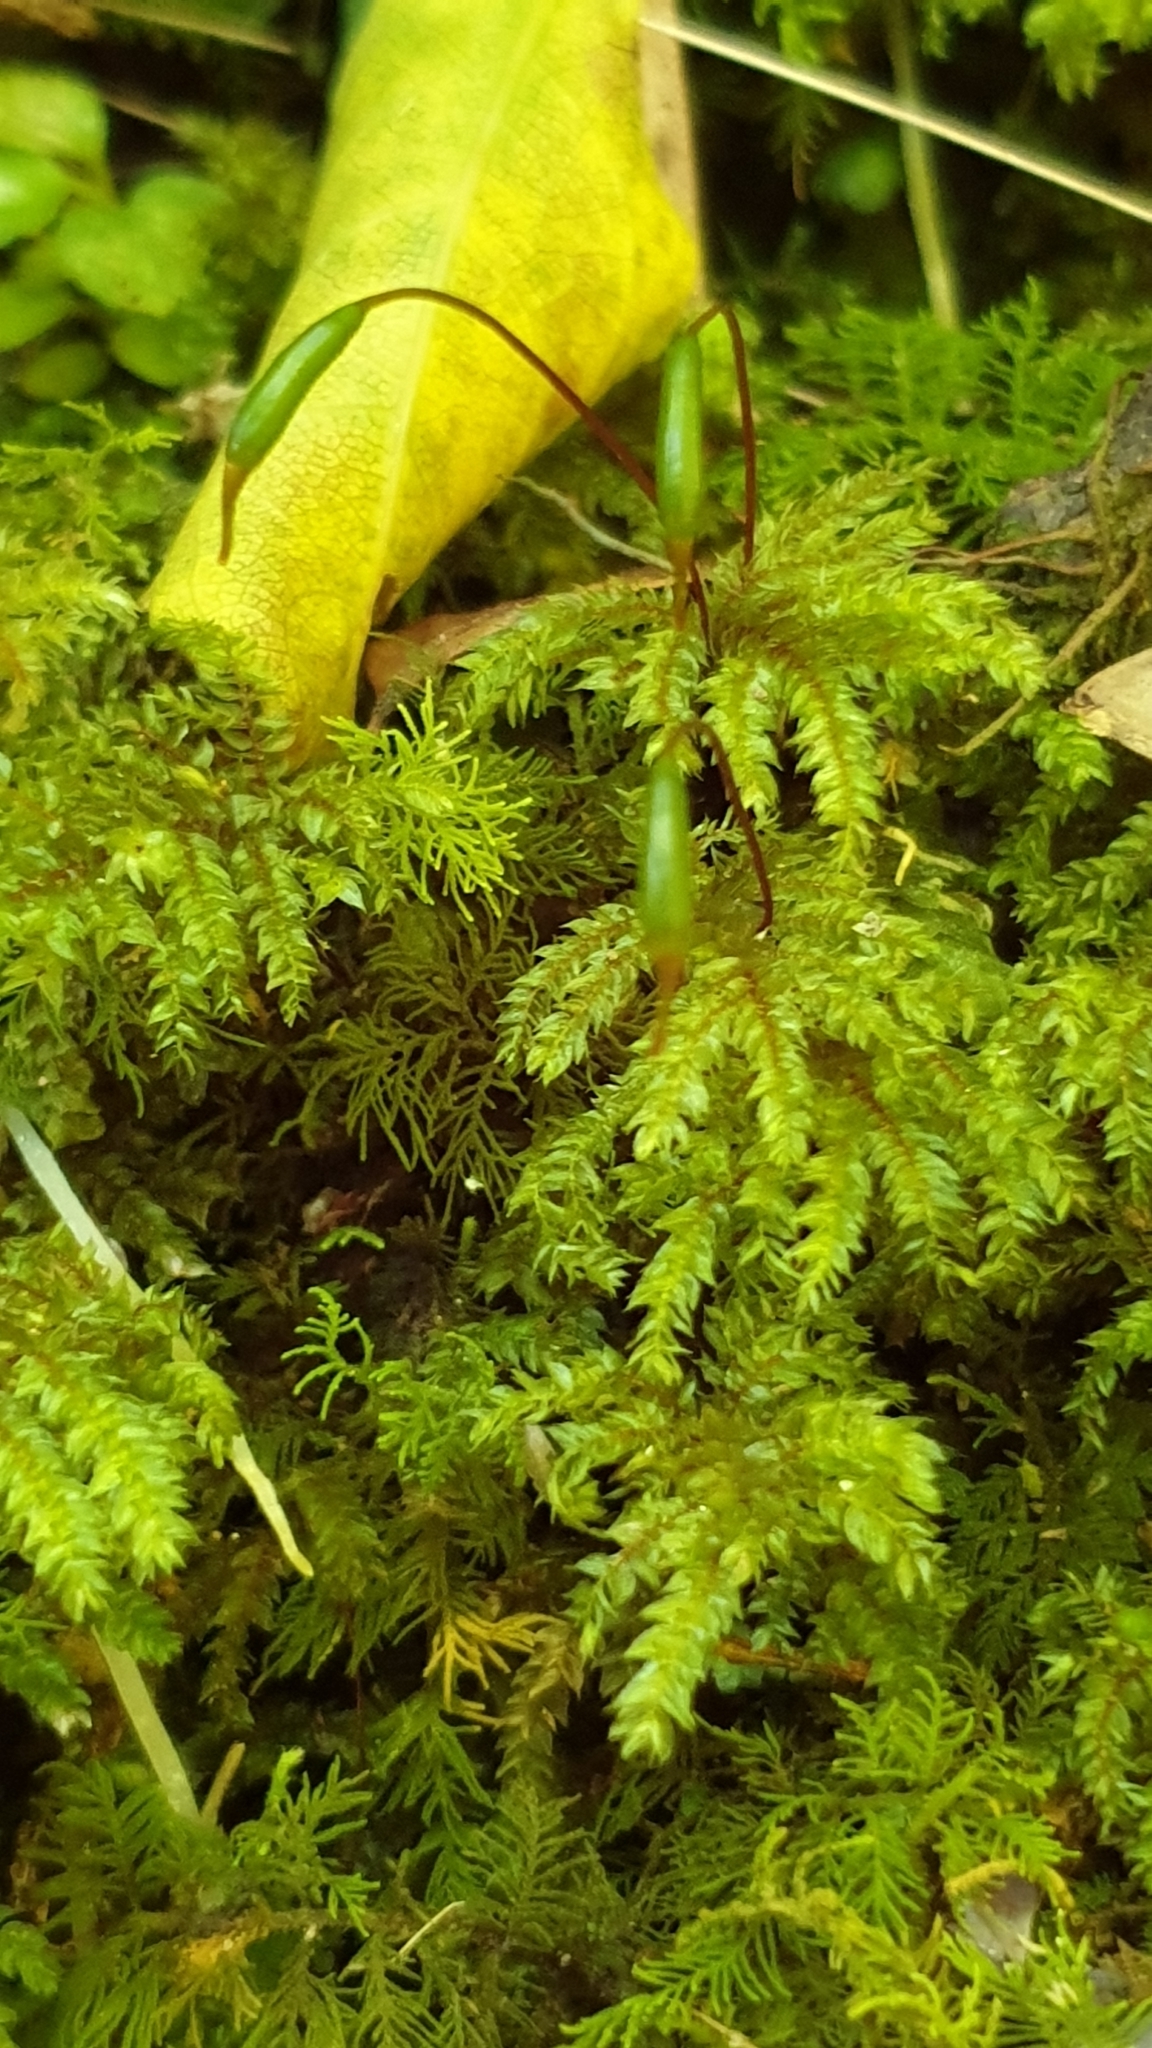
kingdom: Plantae
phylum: Bryophyta
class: Bryopsida
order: Hypnodendrales
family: Spiridentaceae
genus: Hypnodendron
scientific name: Hypnodendron arcuatum
